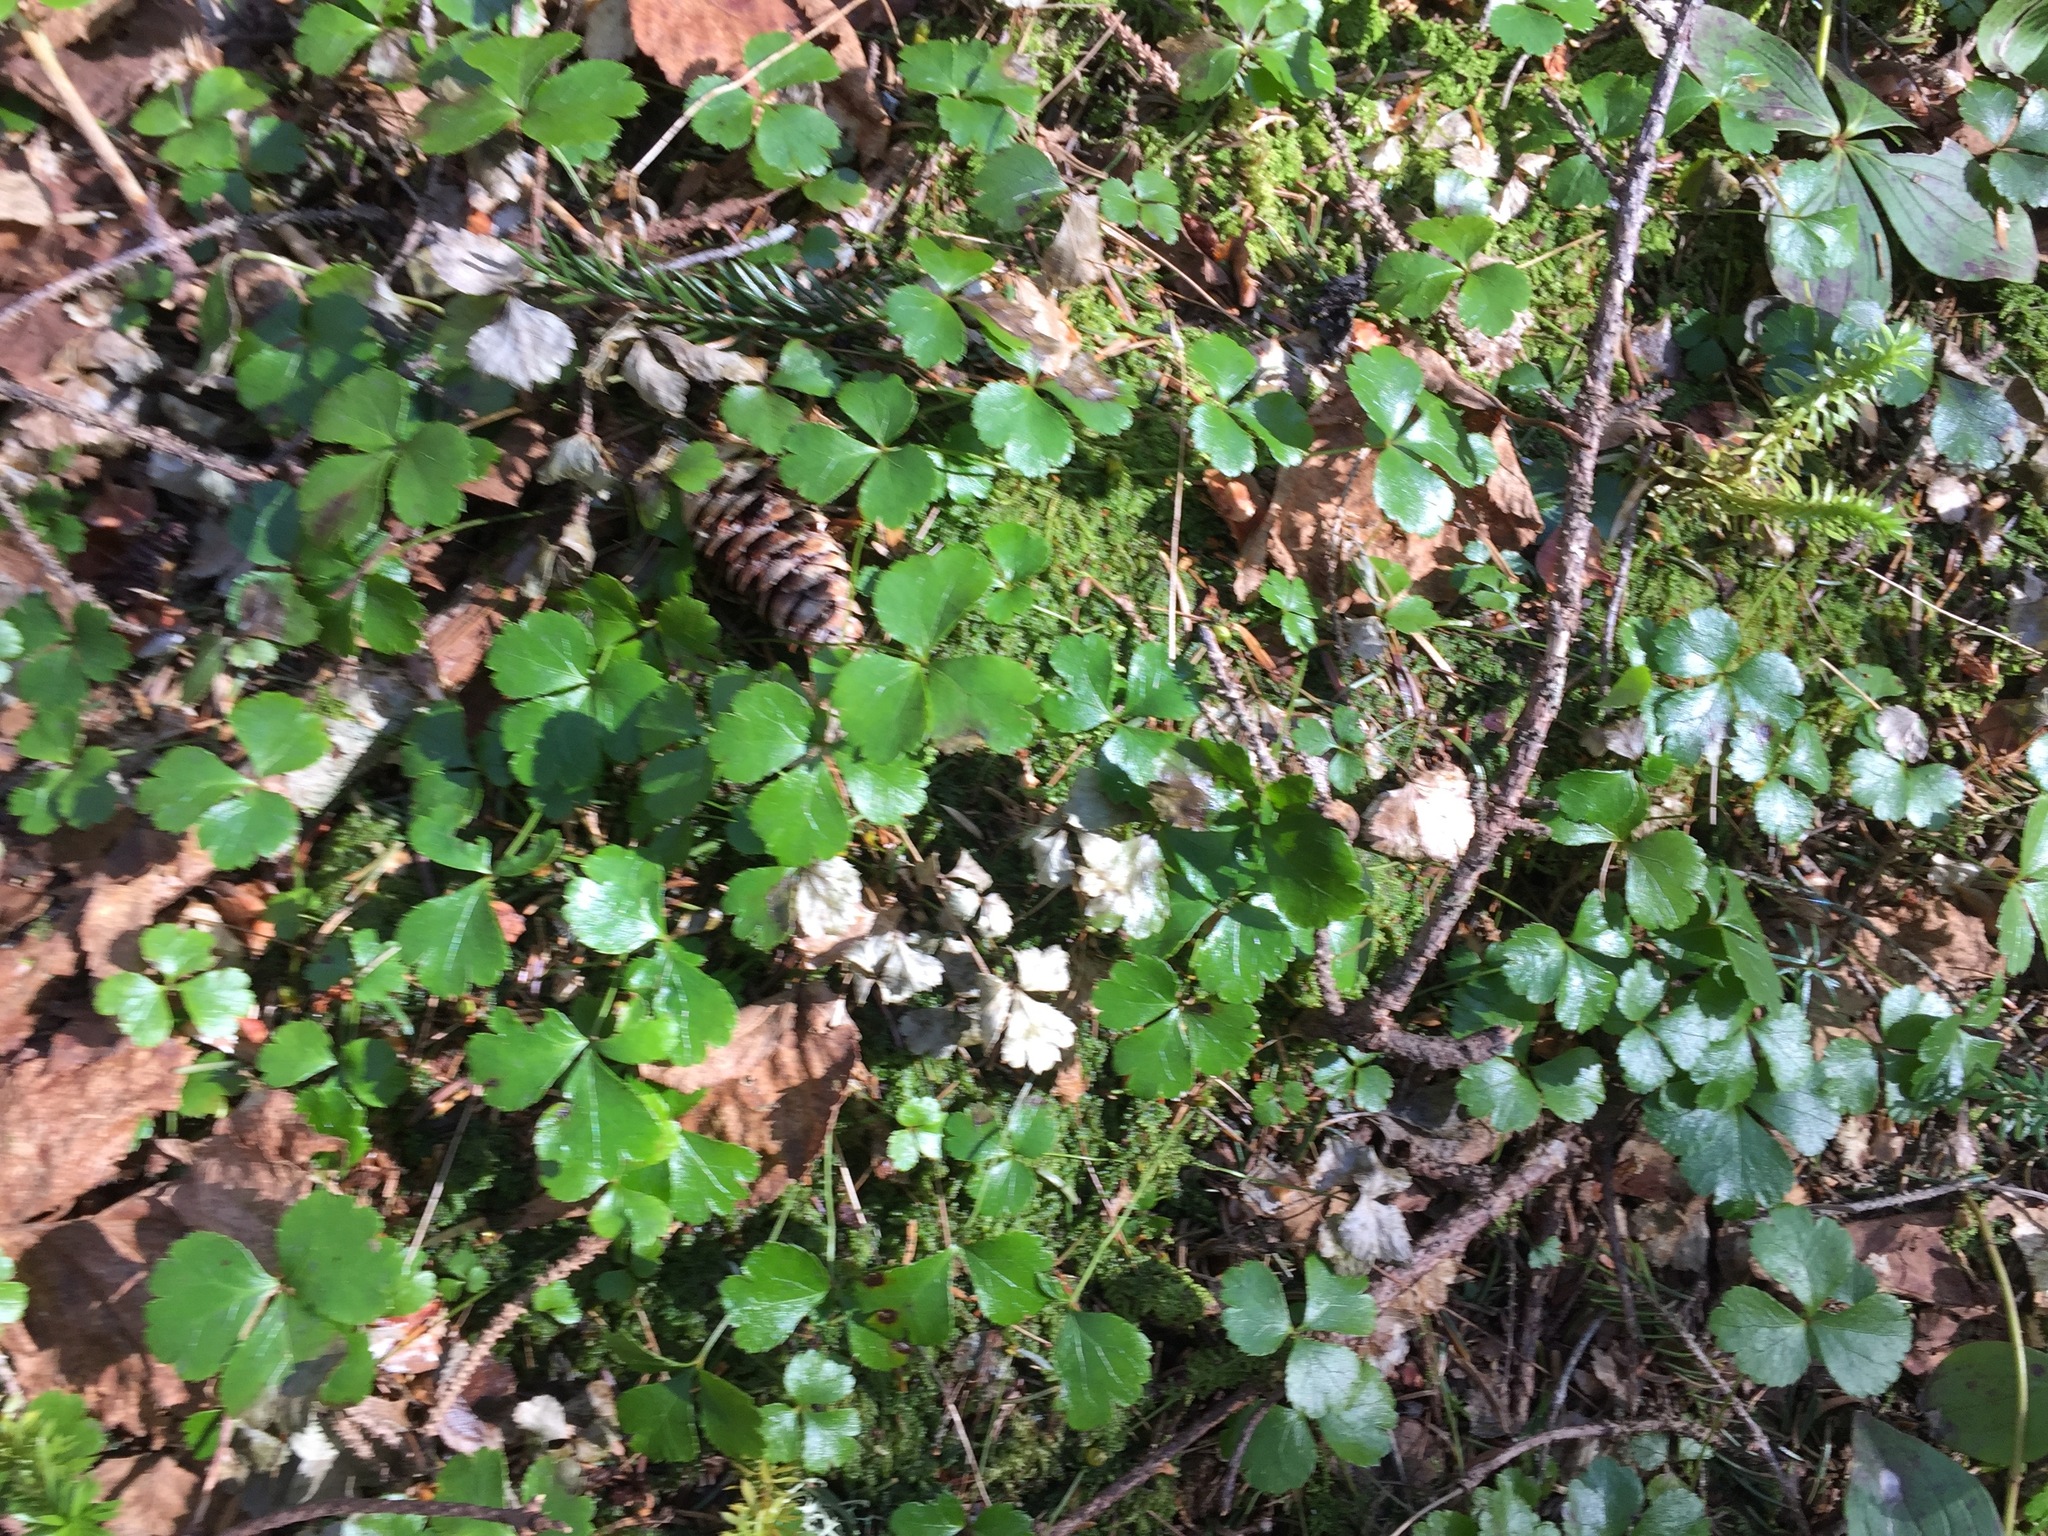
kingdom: Plantae
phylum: Tracheophyta
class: Magnoliopsida
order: Ranunculales
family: Ranunculaceae
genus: Coptis
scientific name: Coptis trifolia
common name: Canker-root
